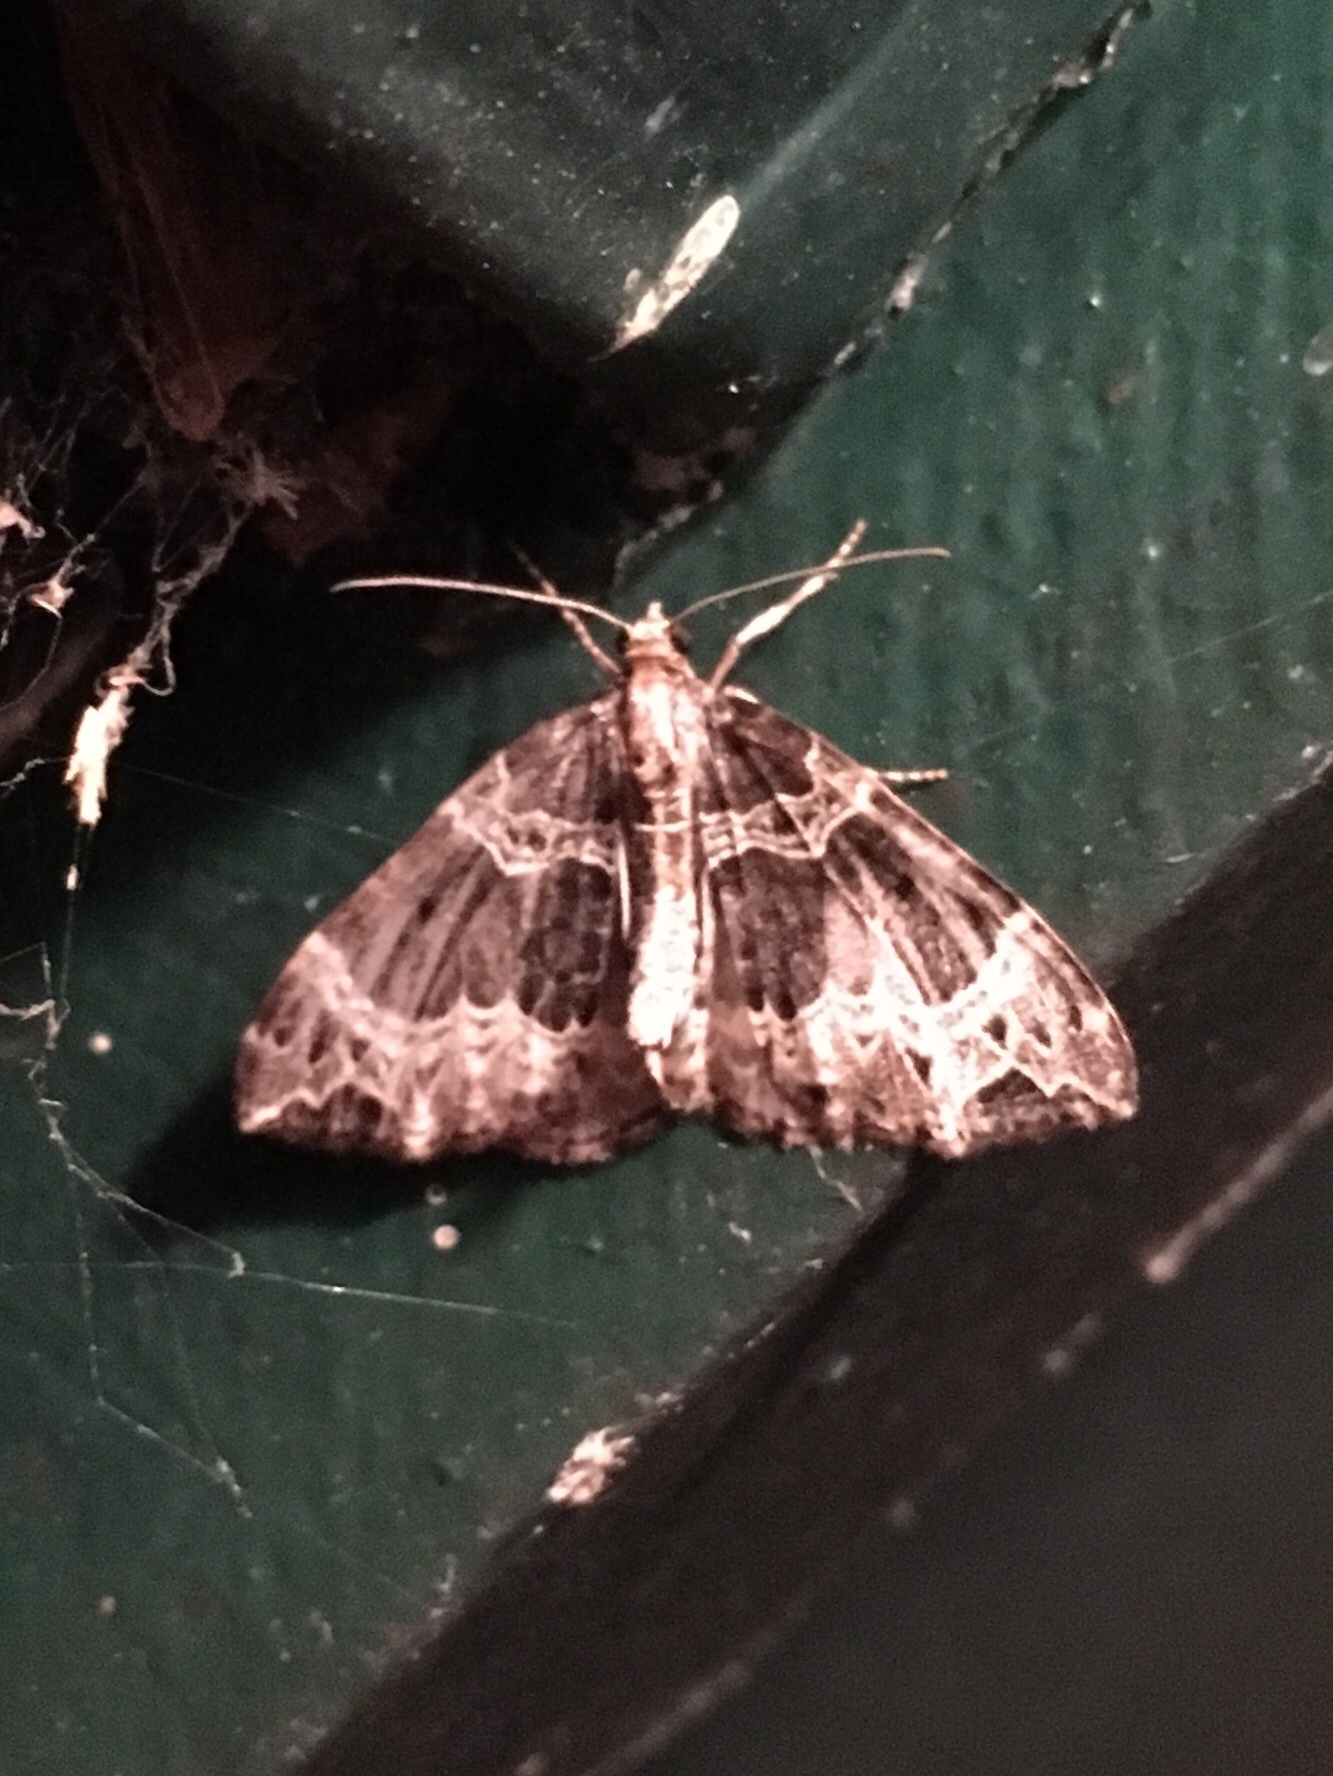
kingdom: Animalia
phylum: Arthropoda
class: Insecta
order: Lepidoptera
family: Geometridae
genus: Ecliptopera
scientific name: Ecliptopera silaceata
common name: Small phoenix
